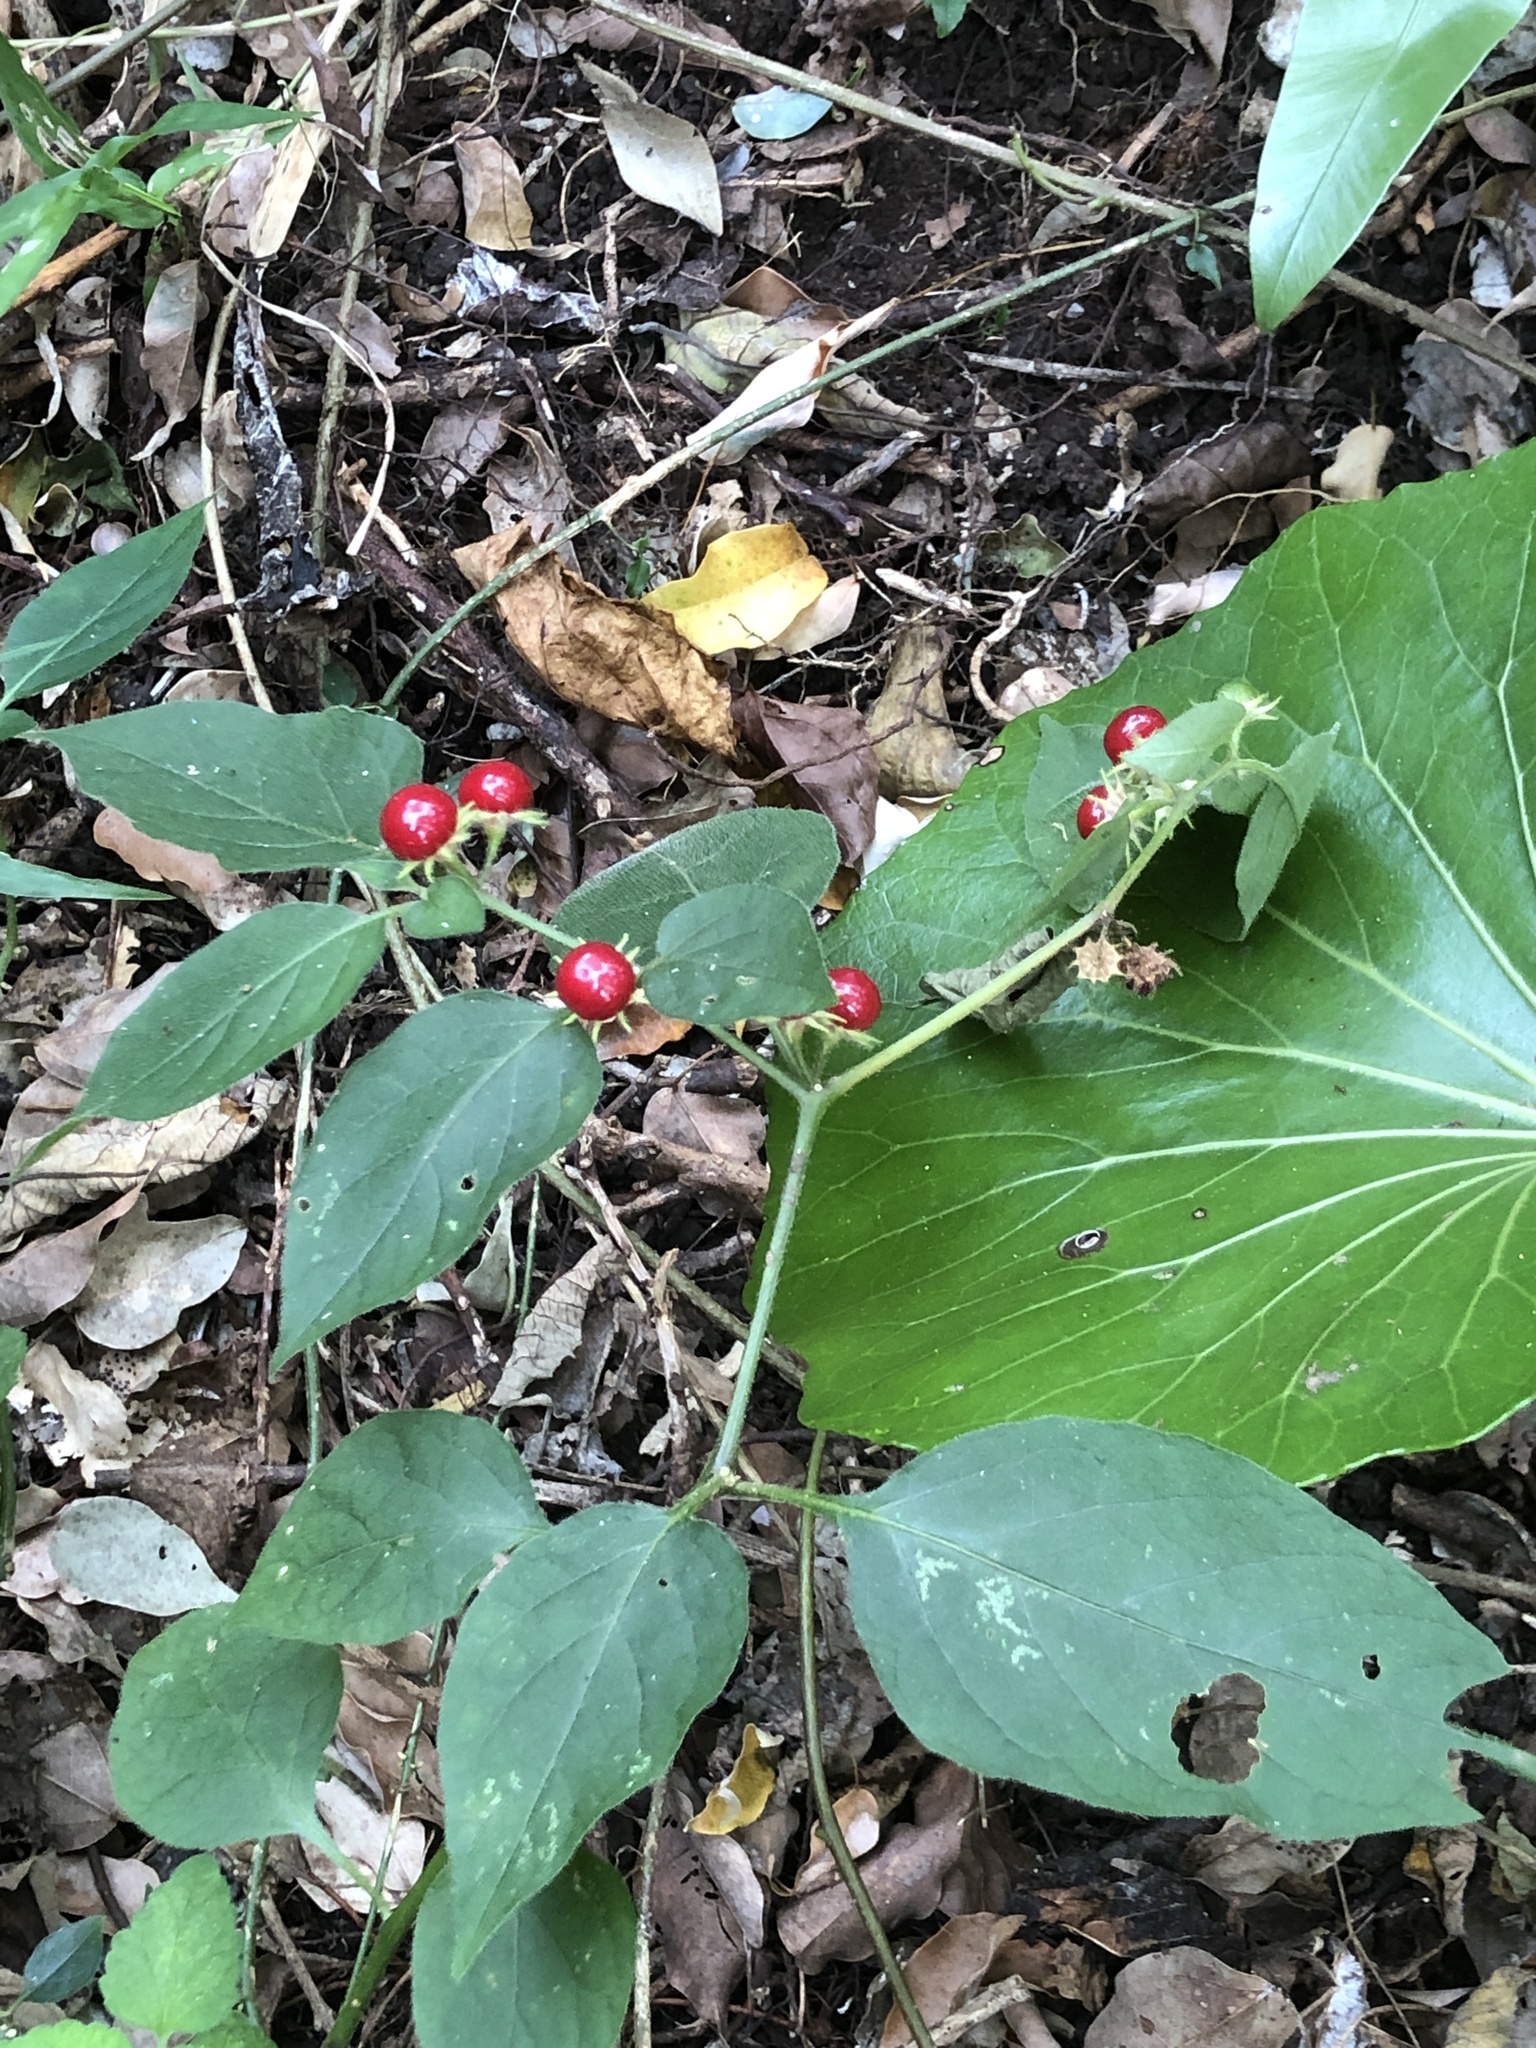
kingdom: Plantae
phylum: Tracheophyta
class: Magnoliopsida
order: Solanales
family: Solanaceae
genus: Lycianthes
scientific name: Lycianthes biflora
